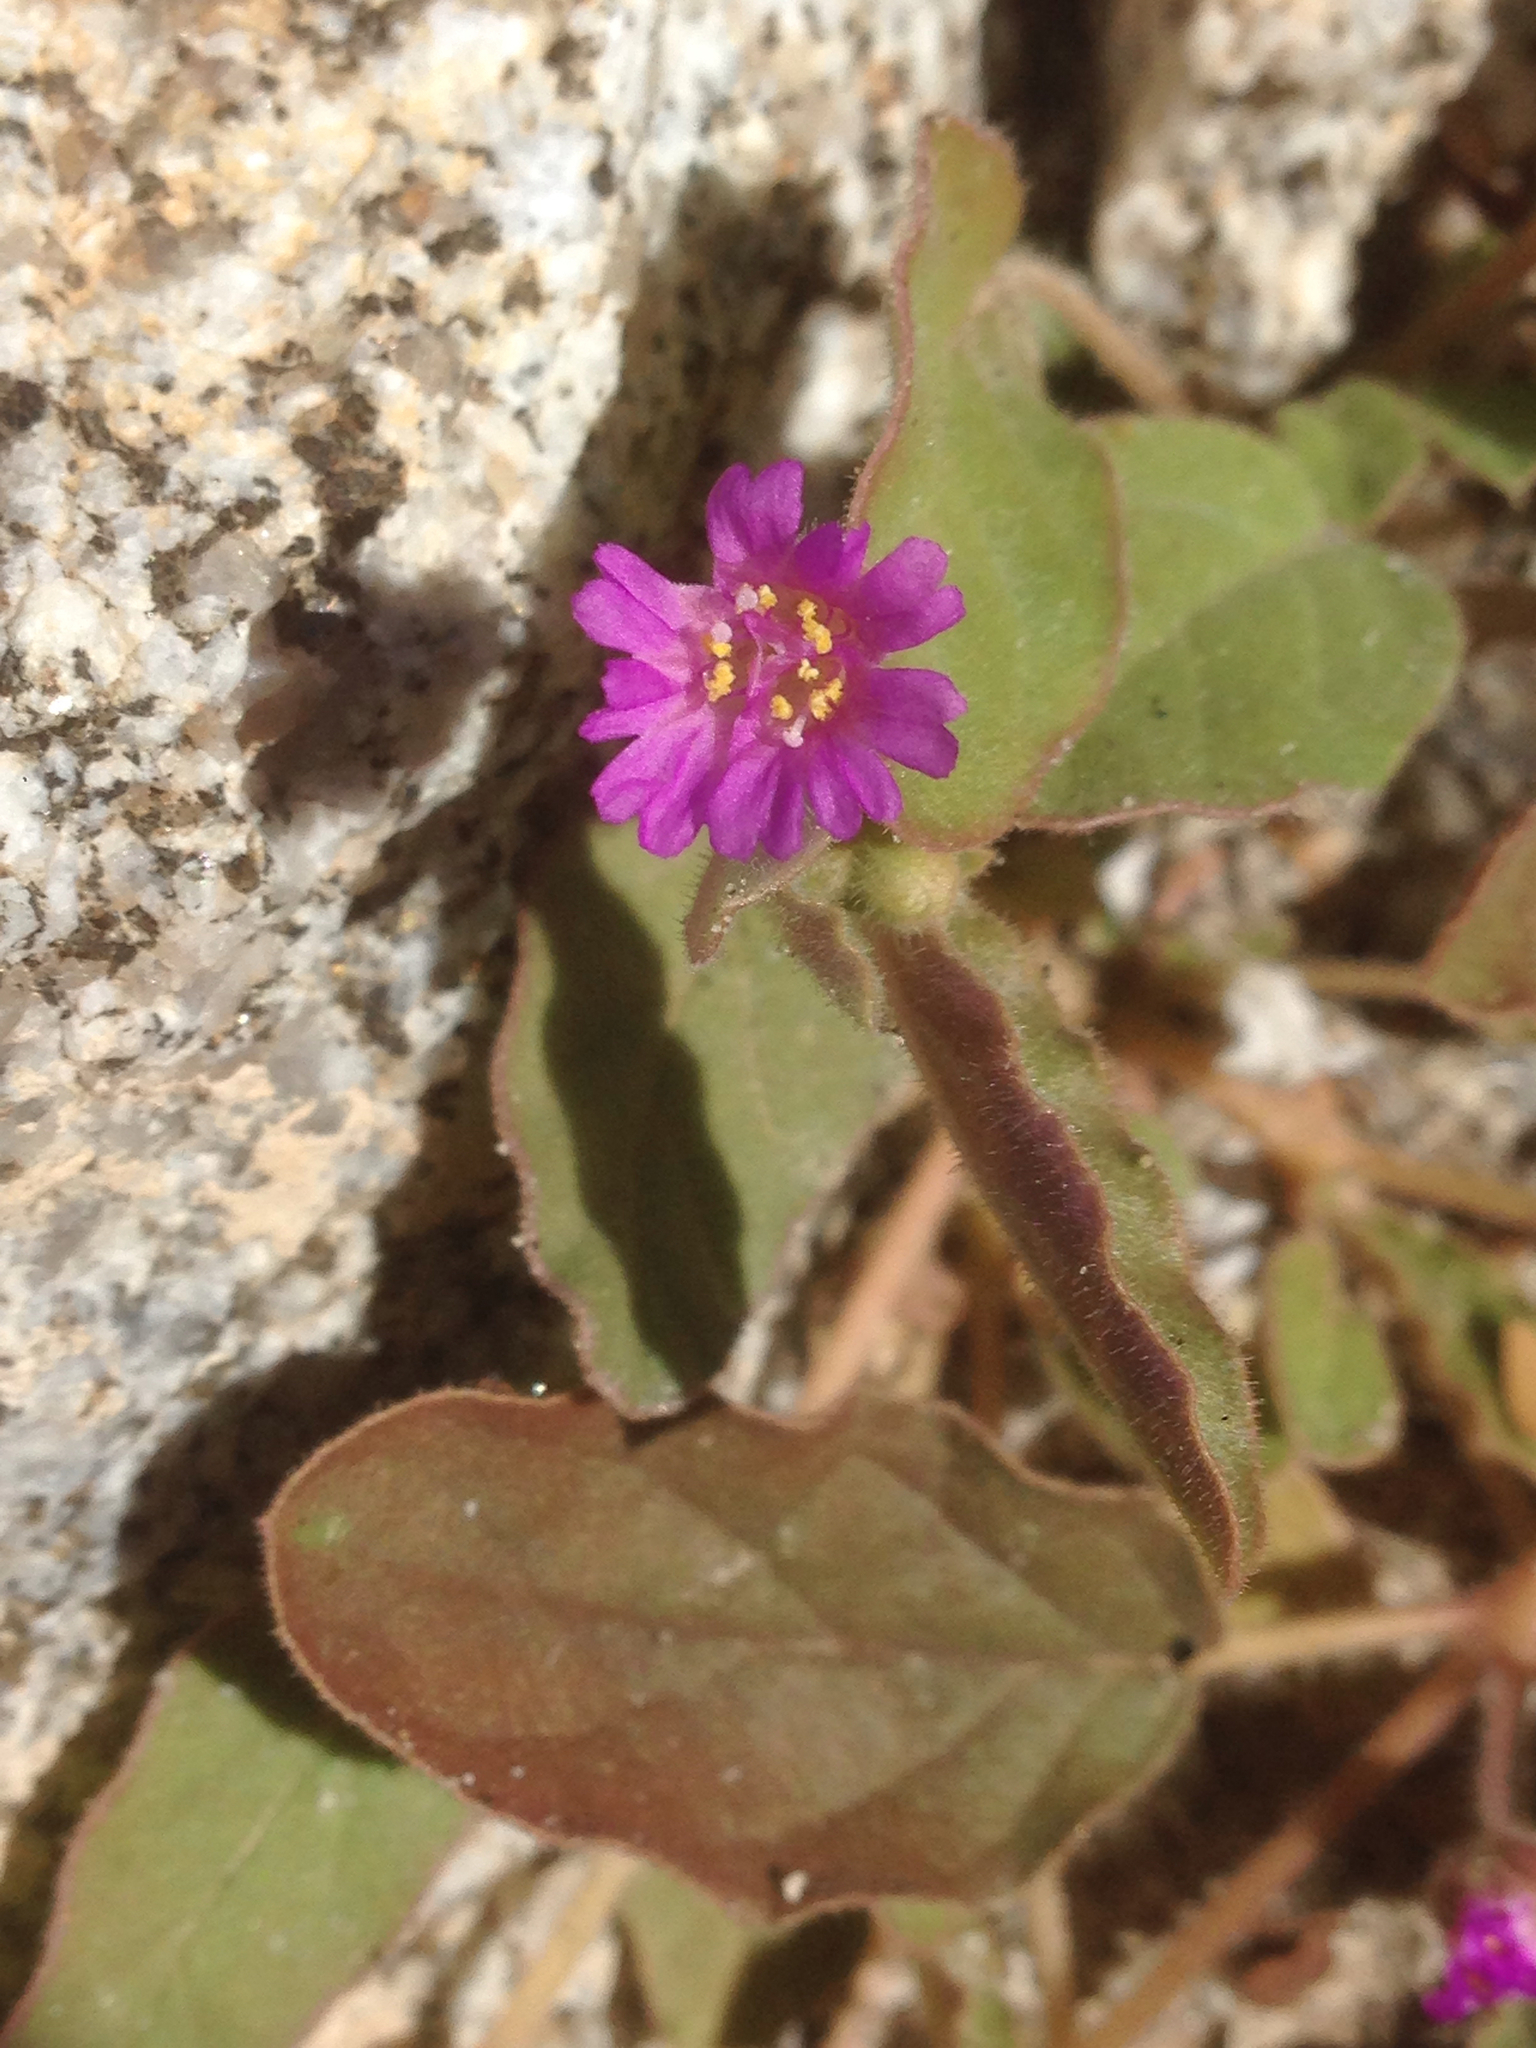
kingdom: Plantae
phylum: Tracheophyta
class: Magnoliopsida
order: Caryophyllales
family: Nyctaginaceae
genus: Allionia
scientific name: Allionia incarnata
